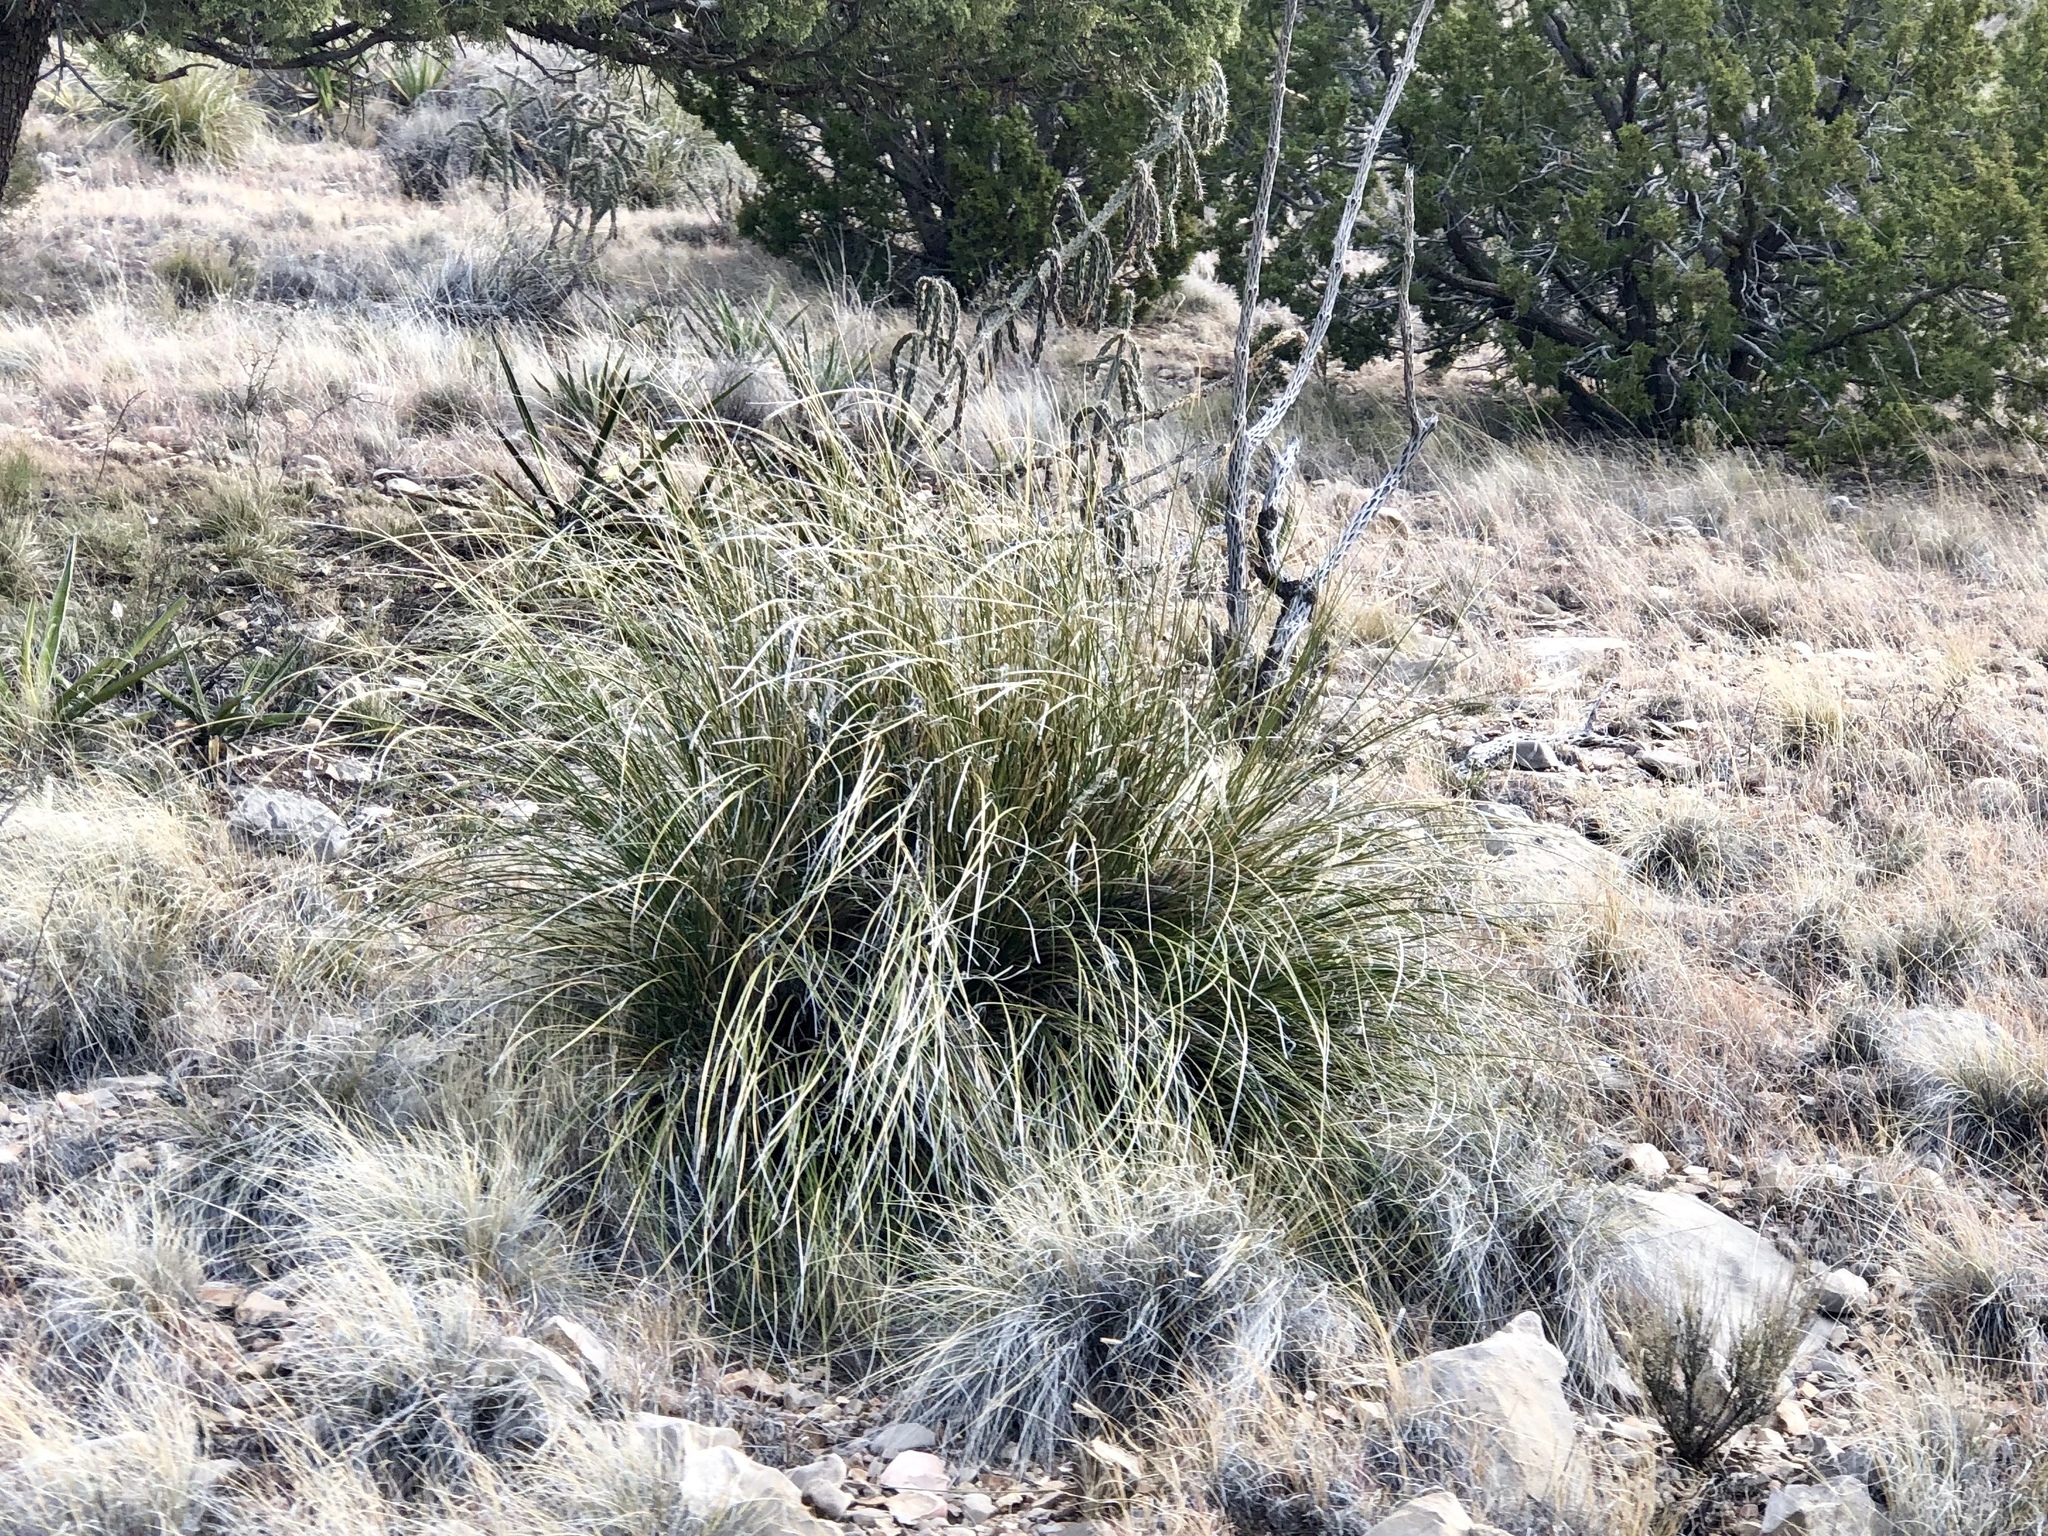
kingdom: Plantae
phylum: Tracheophyta
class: Liliopsida
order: Asparagales
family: Asparagaceae
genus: Nolina
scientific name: Nolina microcarpa
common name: Bear-grass
